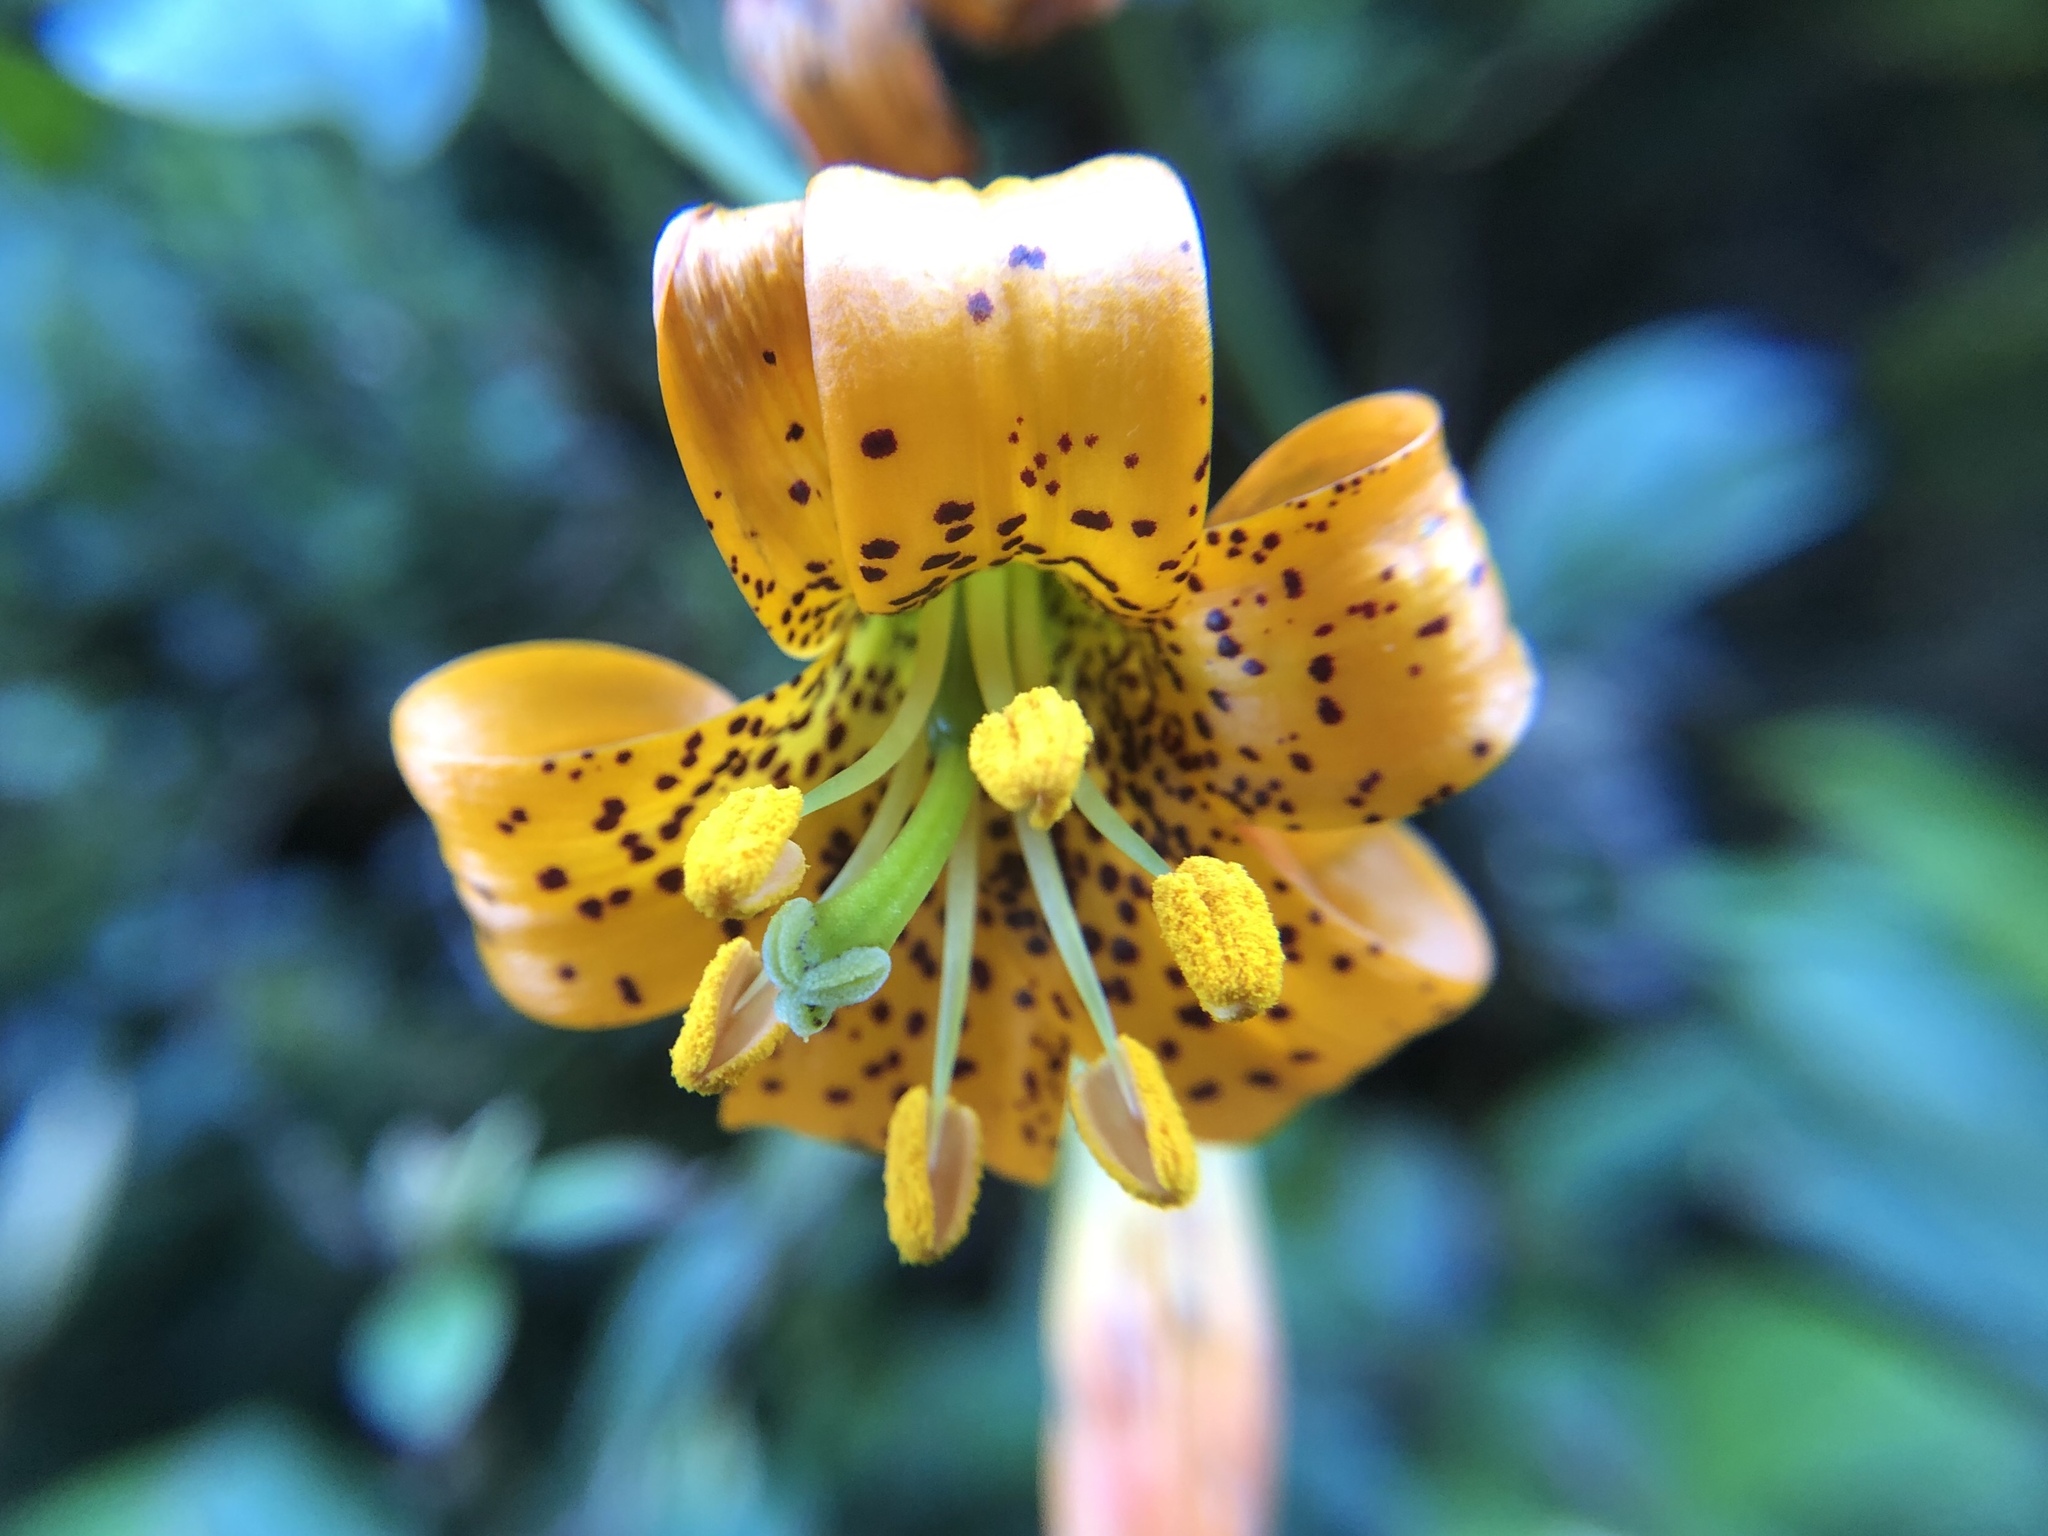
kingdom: Plantae
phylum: Tracheophyta
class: Liliopsida
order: Liliales
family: Liliaceae
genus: Lilium
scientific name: Lilium columbianum
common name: Columbia lily
